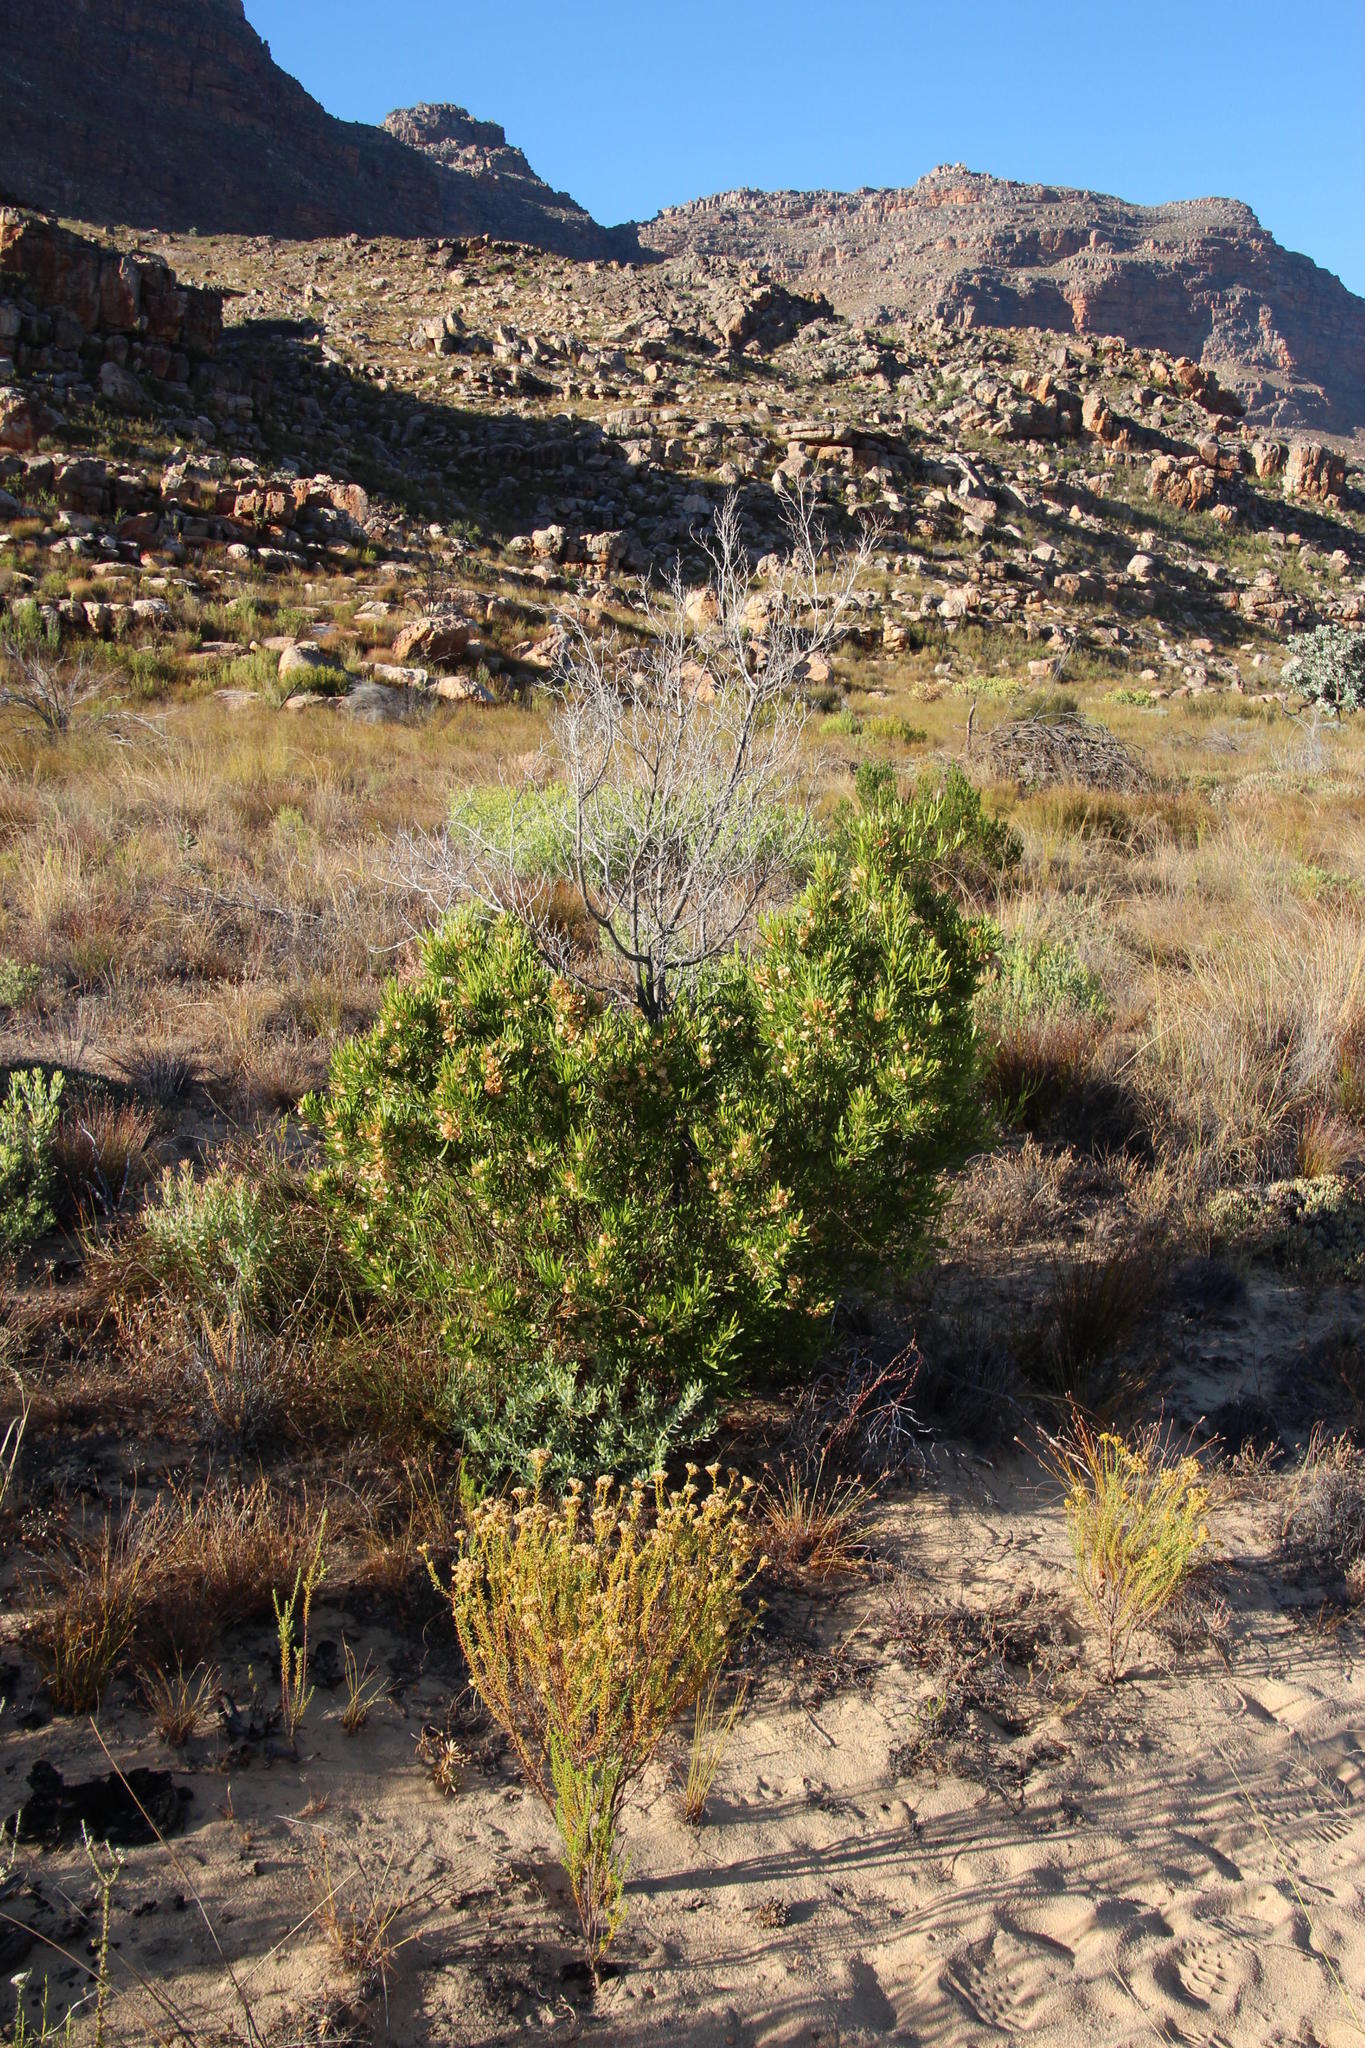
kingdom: Plantae
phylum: Tracheophyta
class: Magnoliopsida
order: Sapindales
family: Sapindaceae
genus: Dodonaea
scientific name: Dodonaea viscosa
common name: Hopbush
